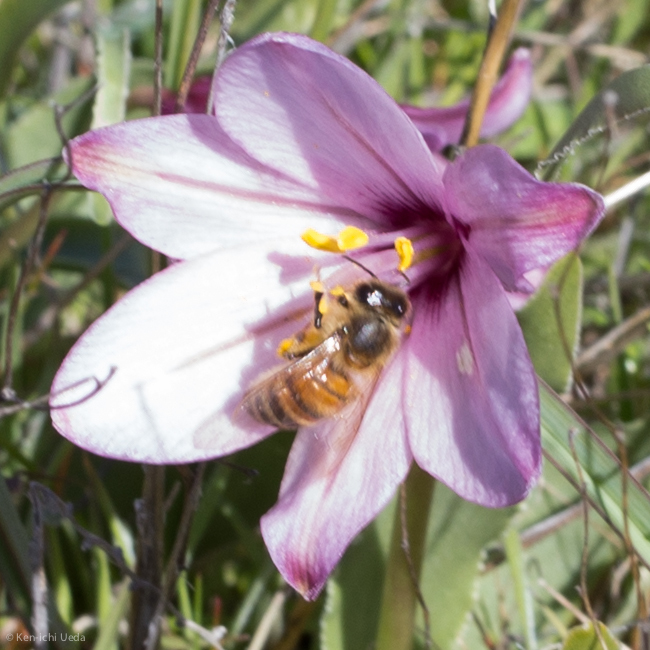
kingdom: Animalia
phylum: Arthropoda
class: Insecta
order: Hymenoptera
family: Apidae
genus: Apis
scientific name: Apis mellifera
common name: Honey bee
